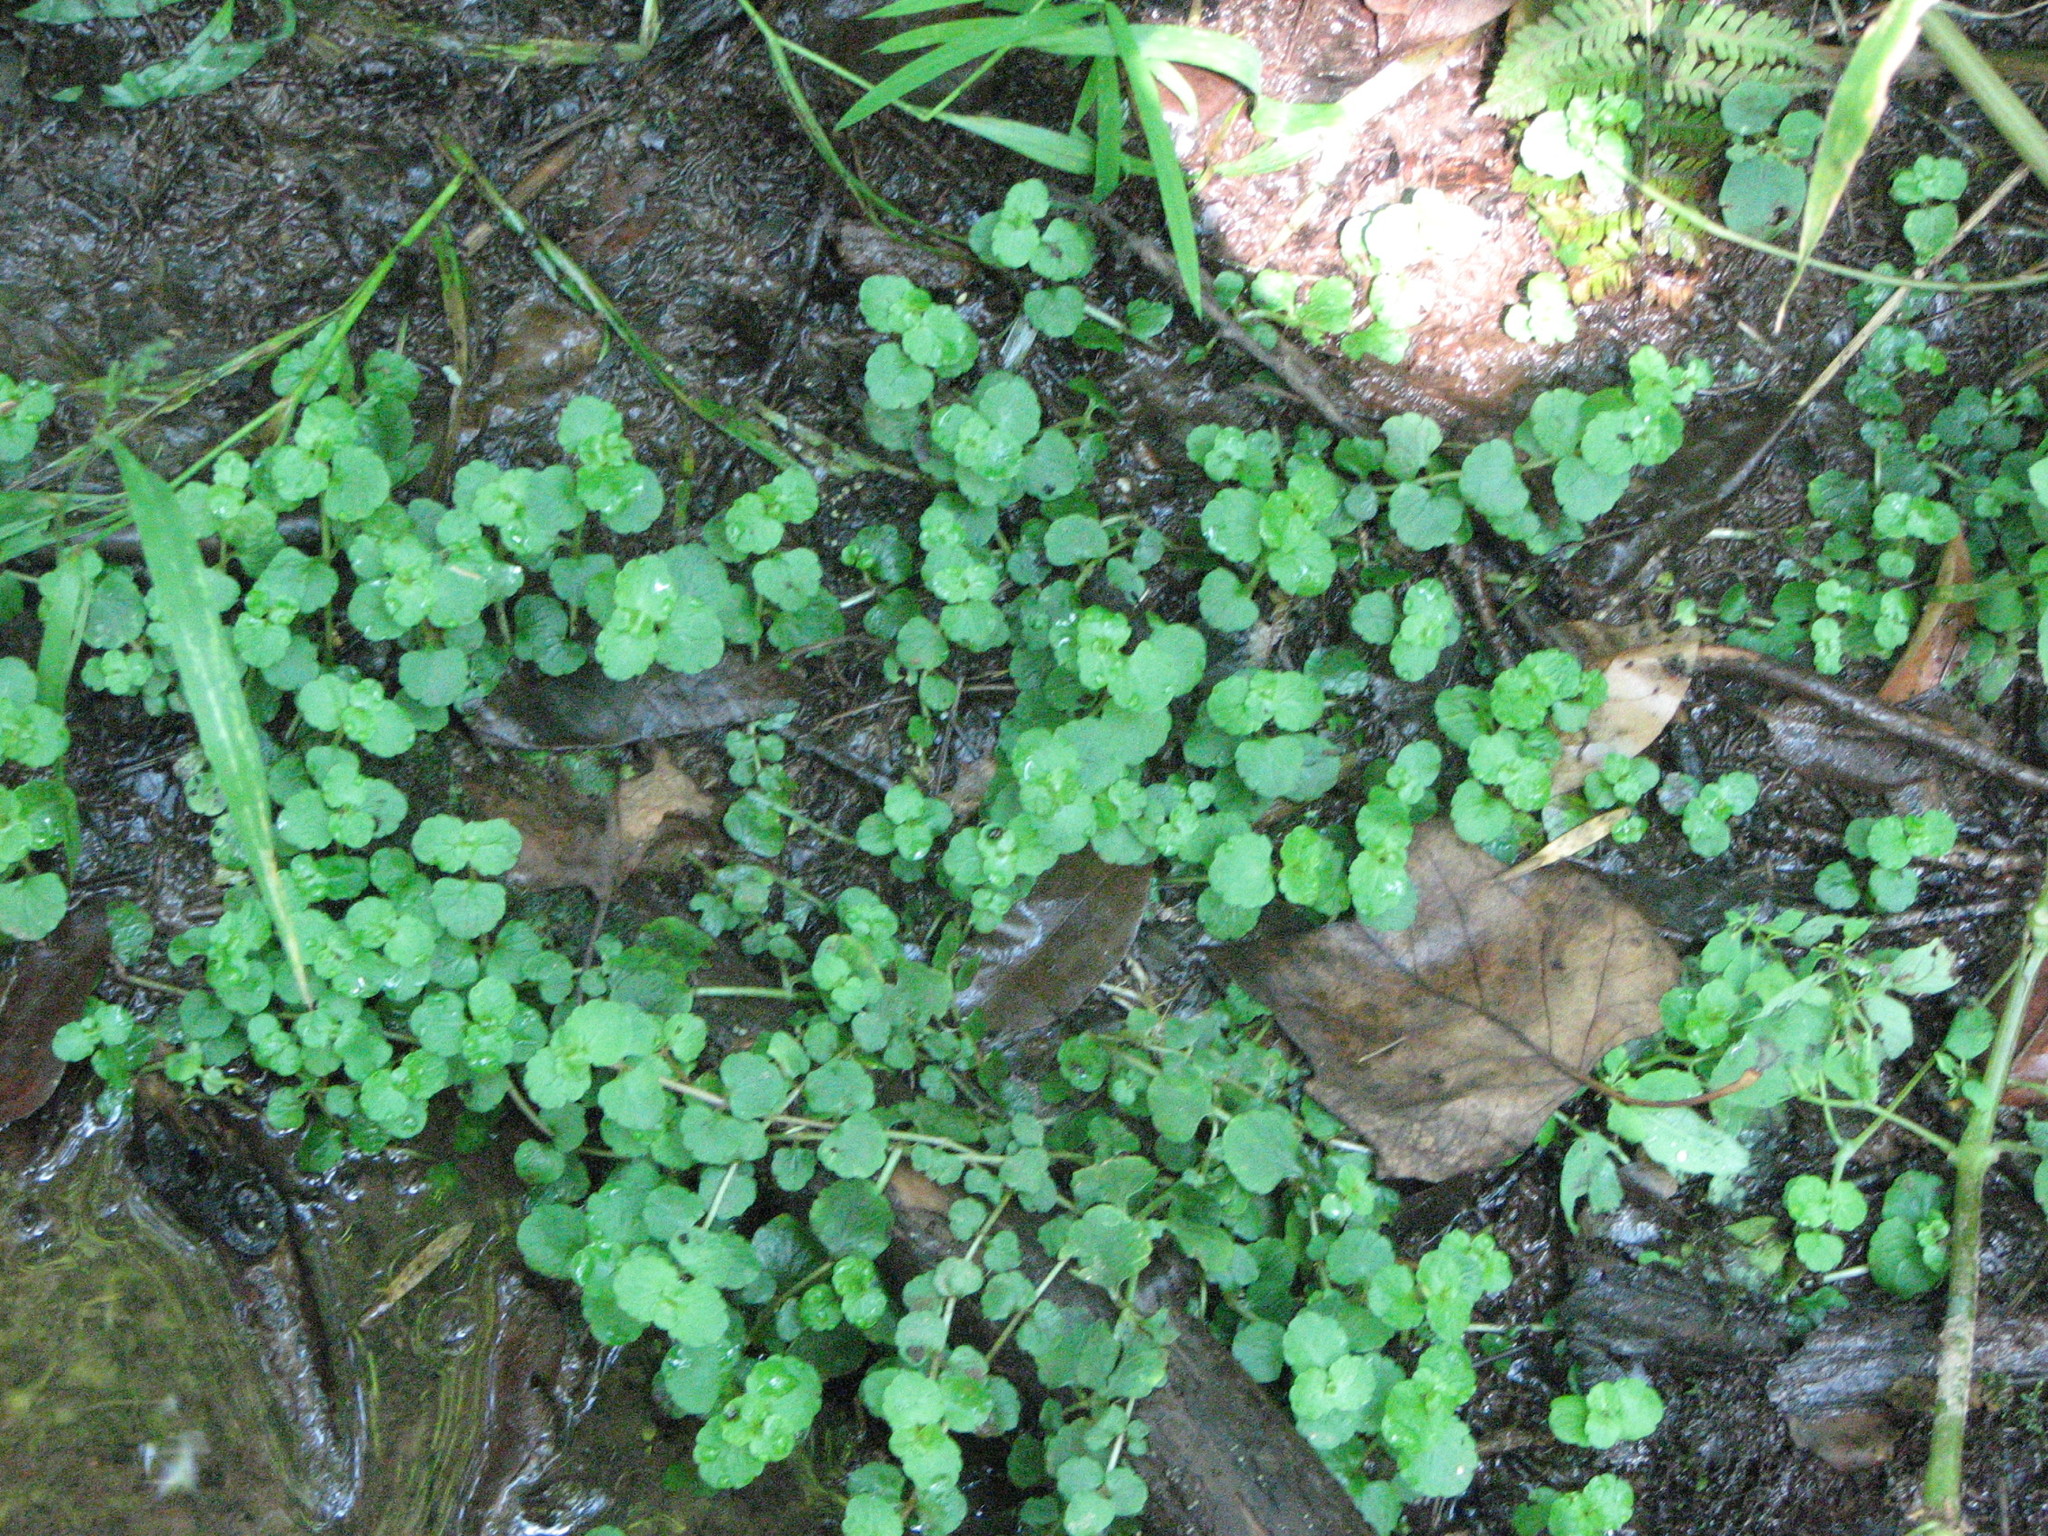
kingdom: Plantae
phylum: Tracheophyta
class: Magnoliopsida
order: Saxifragales
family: Saxifragaceae
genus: Chrysosplenium
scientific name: Chrysosplenium americanum
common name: American golden-saxifrage
